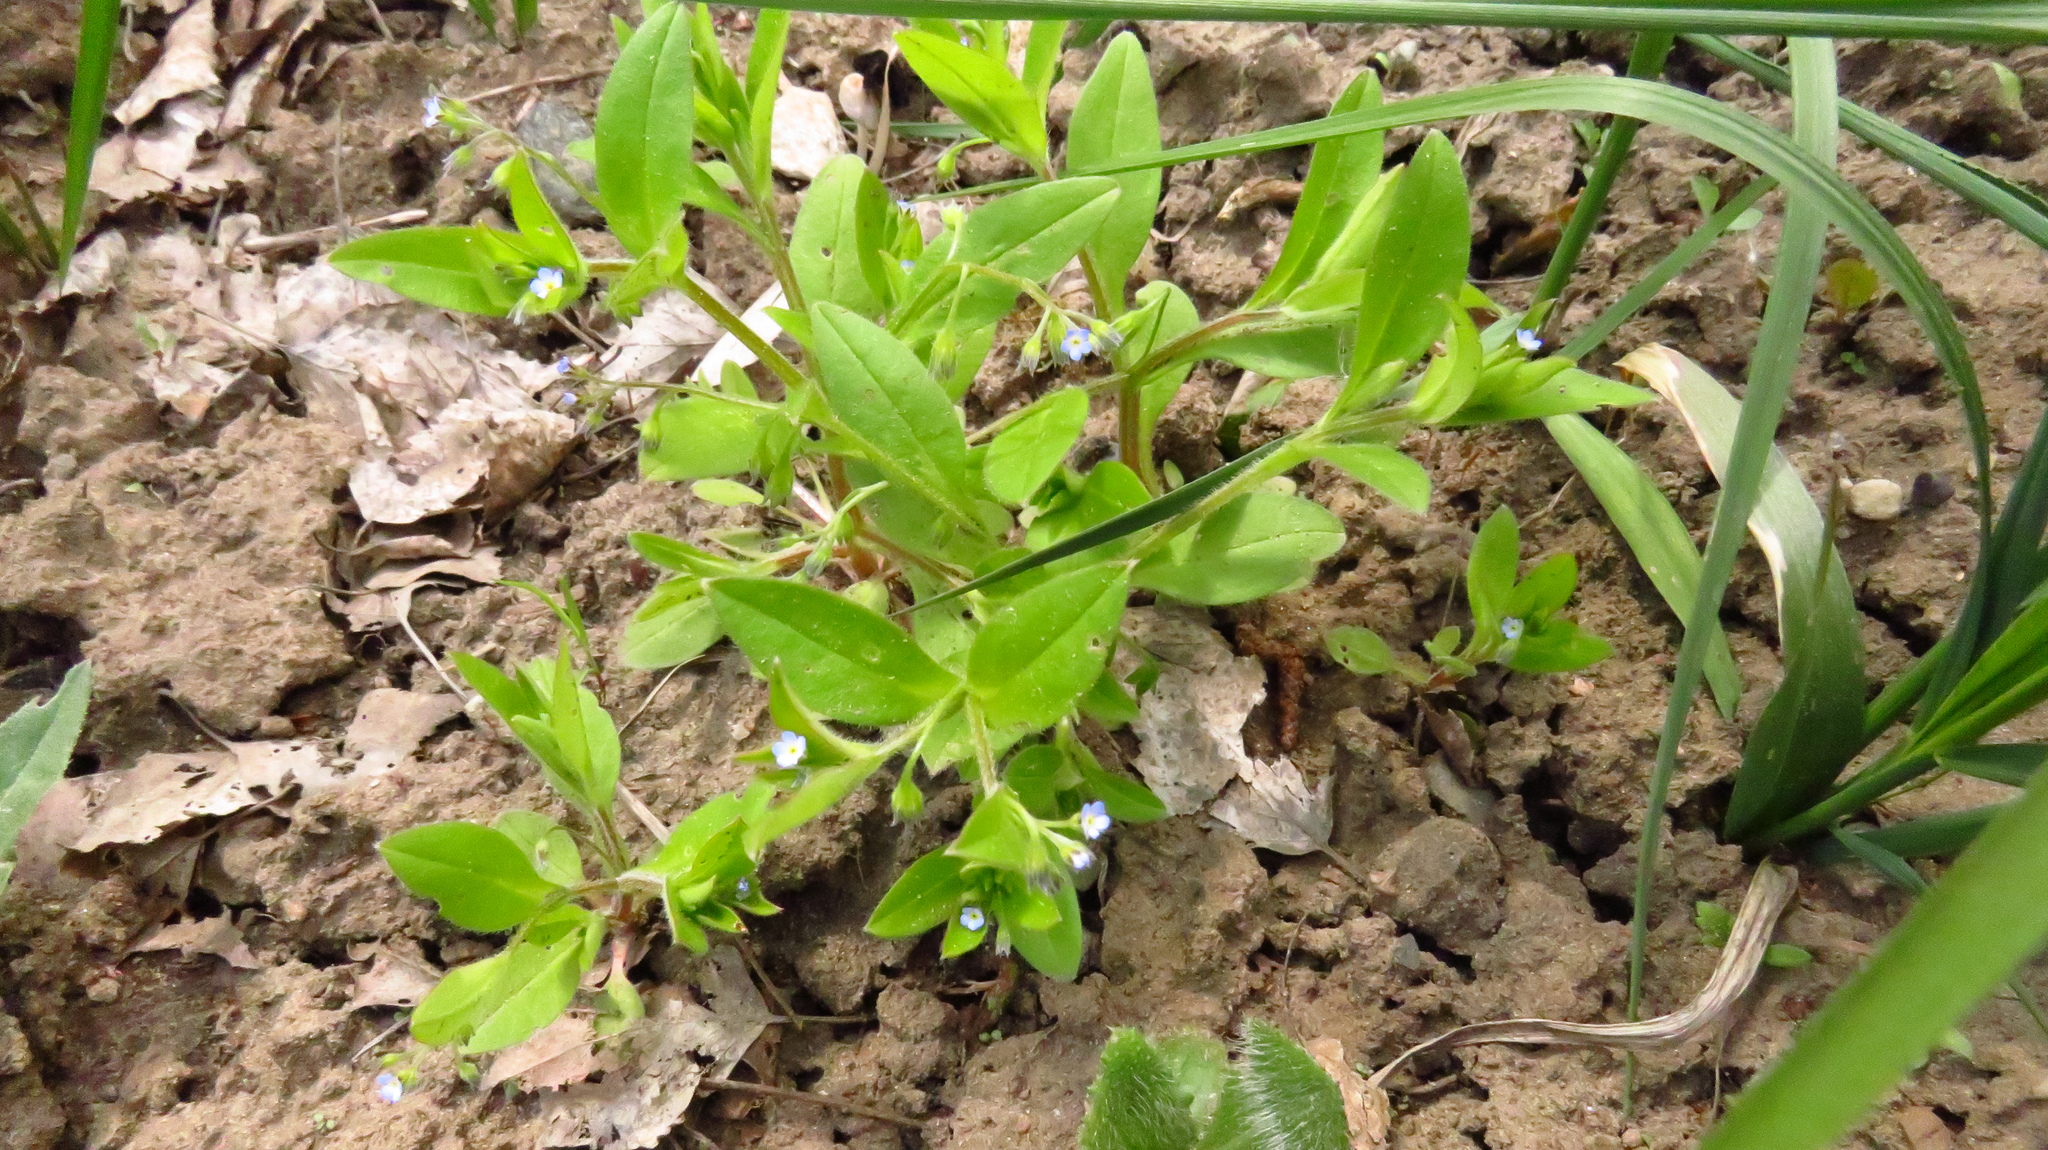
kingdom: Plantae
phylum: Tracheophyta
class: Magnoliopsida
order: Boraginales
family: Boraginaceae
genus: Myosotis
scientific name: Myosotis sparsiflora
